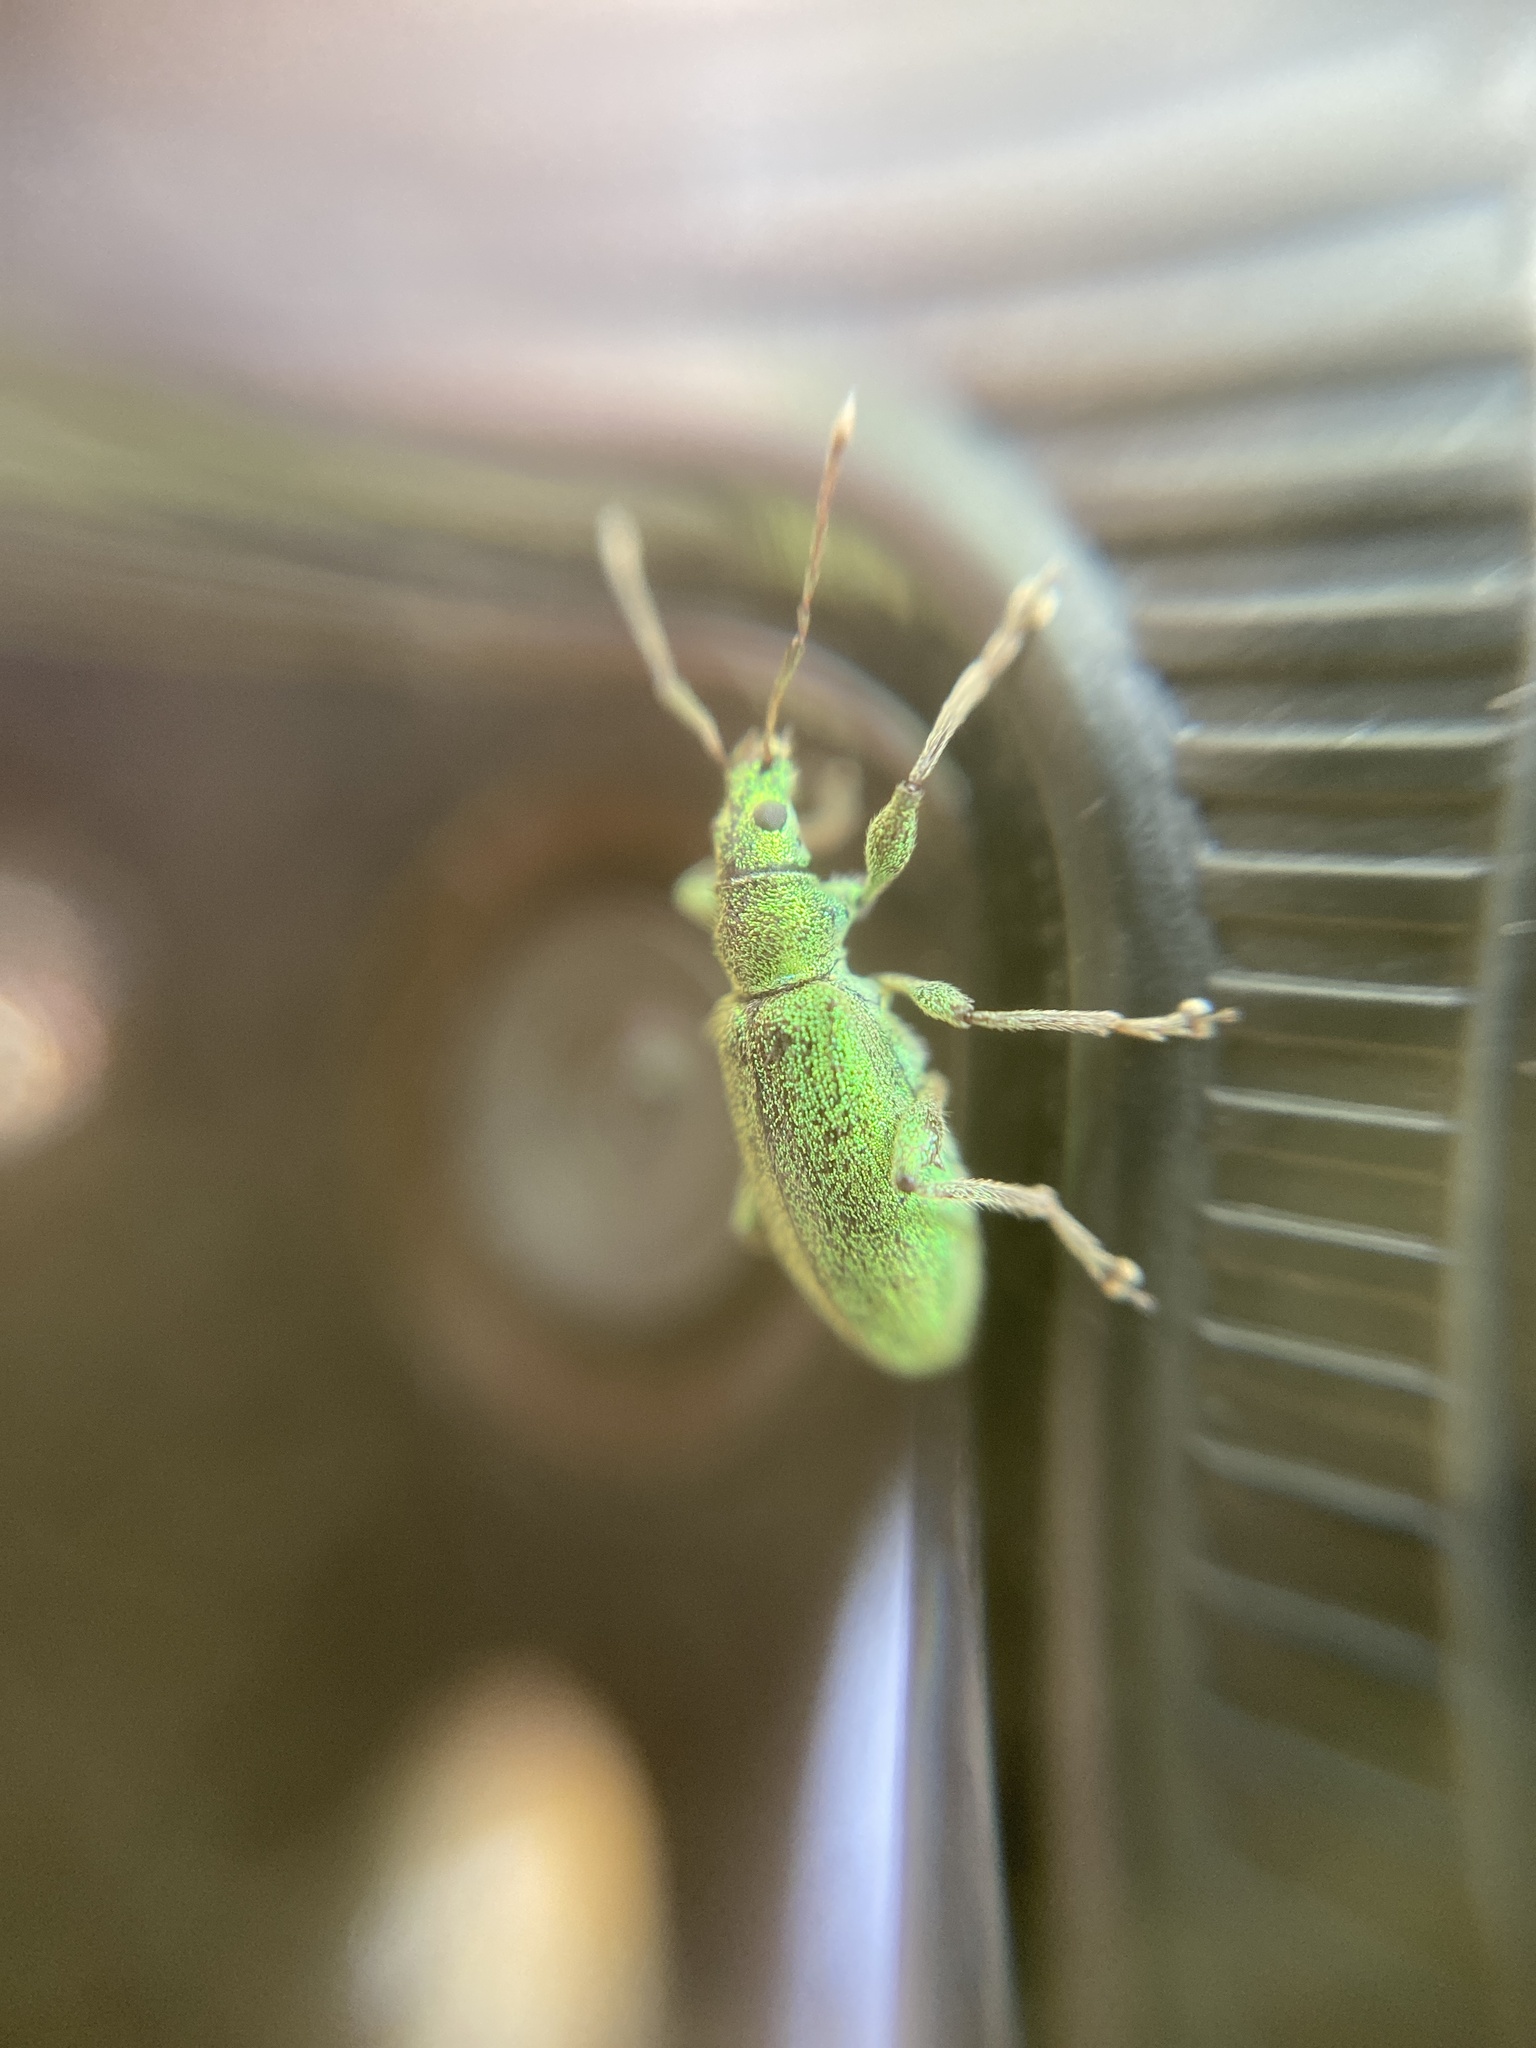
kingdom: Animalia
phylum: Arthropoda
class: Insecta
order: Coleoptera
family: Curculionidae
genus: Phyllobius
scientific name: Phyllobius arborator
